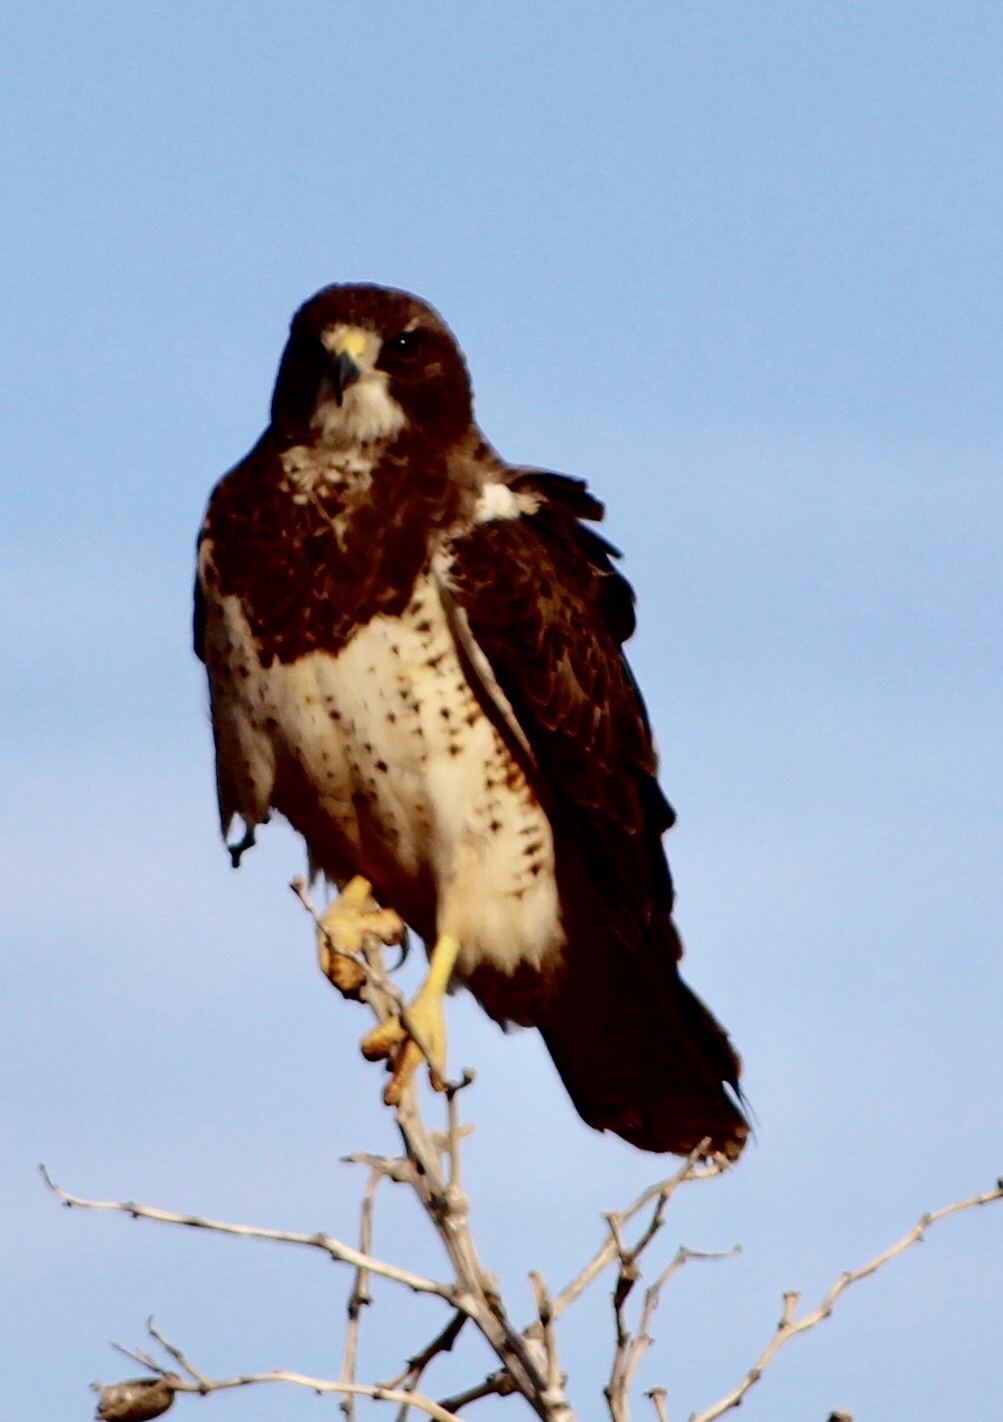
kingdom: Animalia
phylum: Chordata
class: Aves
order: Accipitriformes
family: Accipitridae
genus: Buteo
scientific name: Buteo swainsoni
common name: Swainson's hawk
